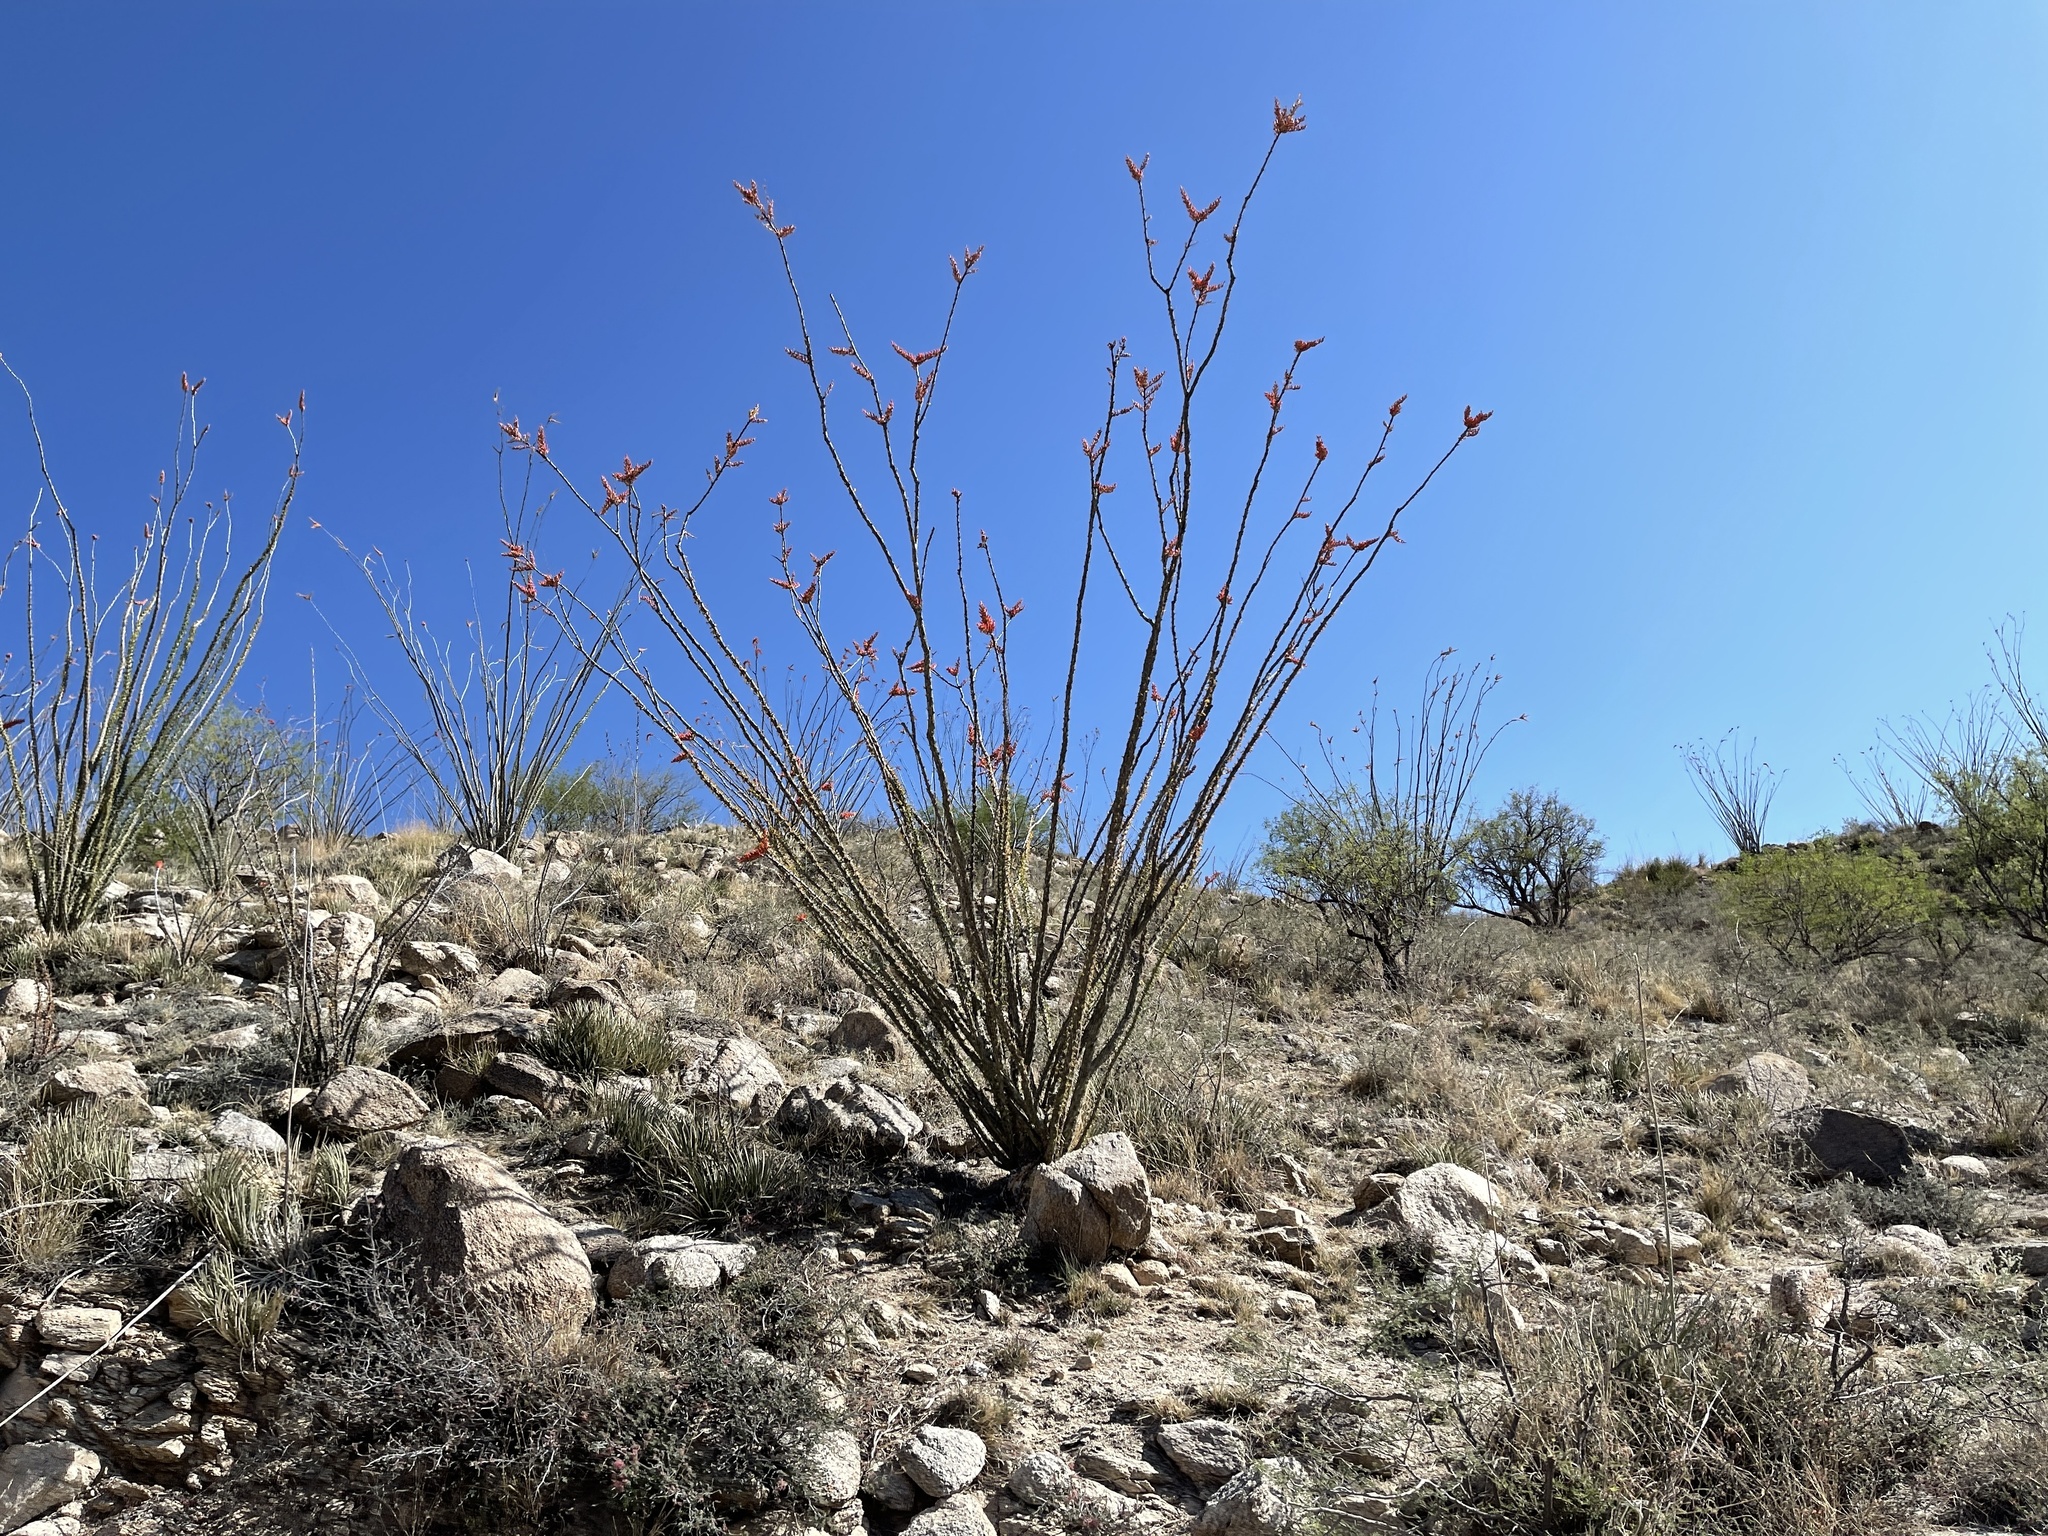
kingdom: Plantae
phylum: Tracheophyta
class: Magnoliopsida
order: Ericales
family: Fouquieriaceae
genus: Fouquieria
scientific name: Fouquieria splendens
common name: Vine-cactus
